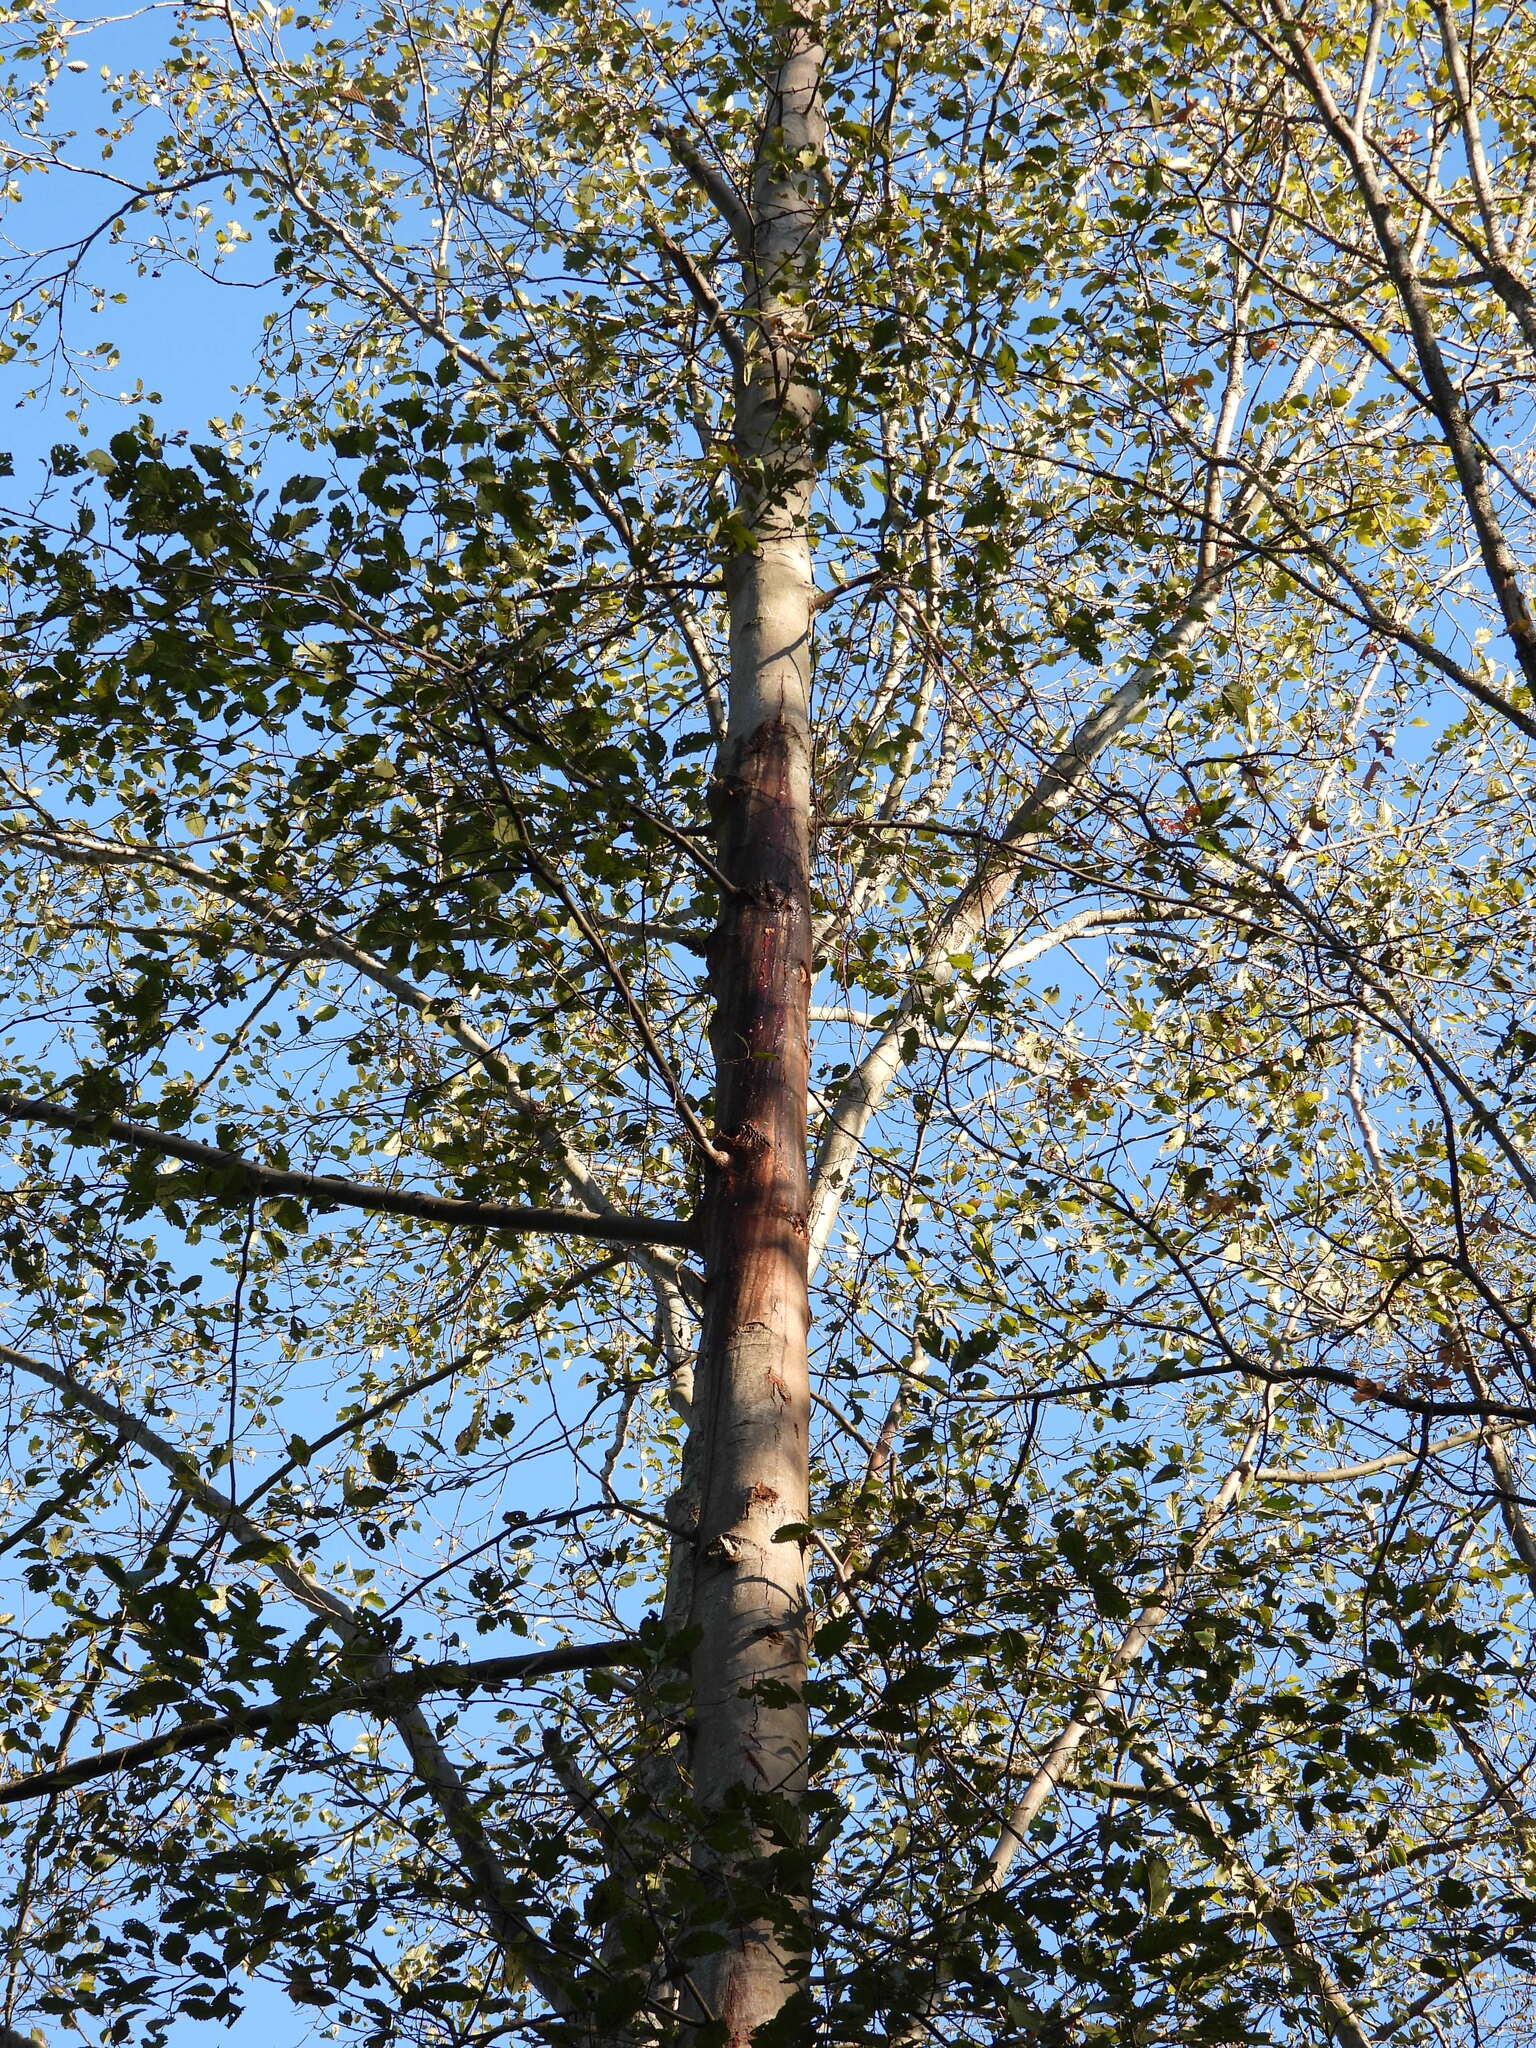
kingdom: Plantae
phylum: Tracheophyta
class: Magnoliopsida
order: Fagales
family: Betulaceae
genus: Alnus
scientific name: Alnus rubra
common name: Red alder
